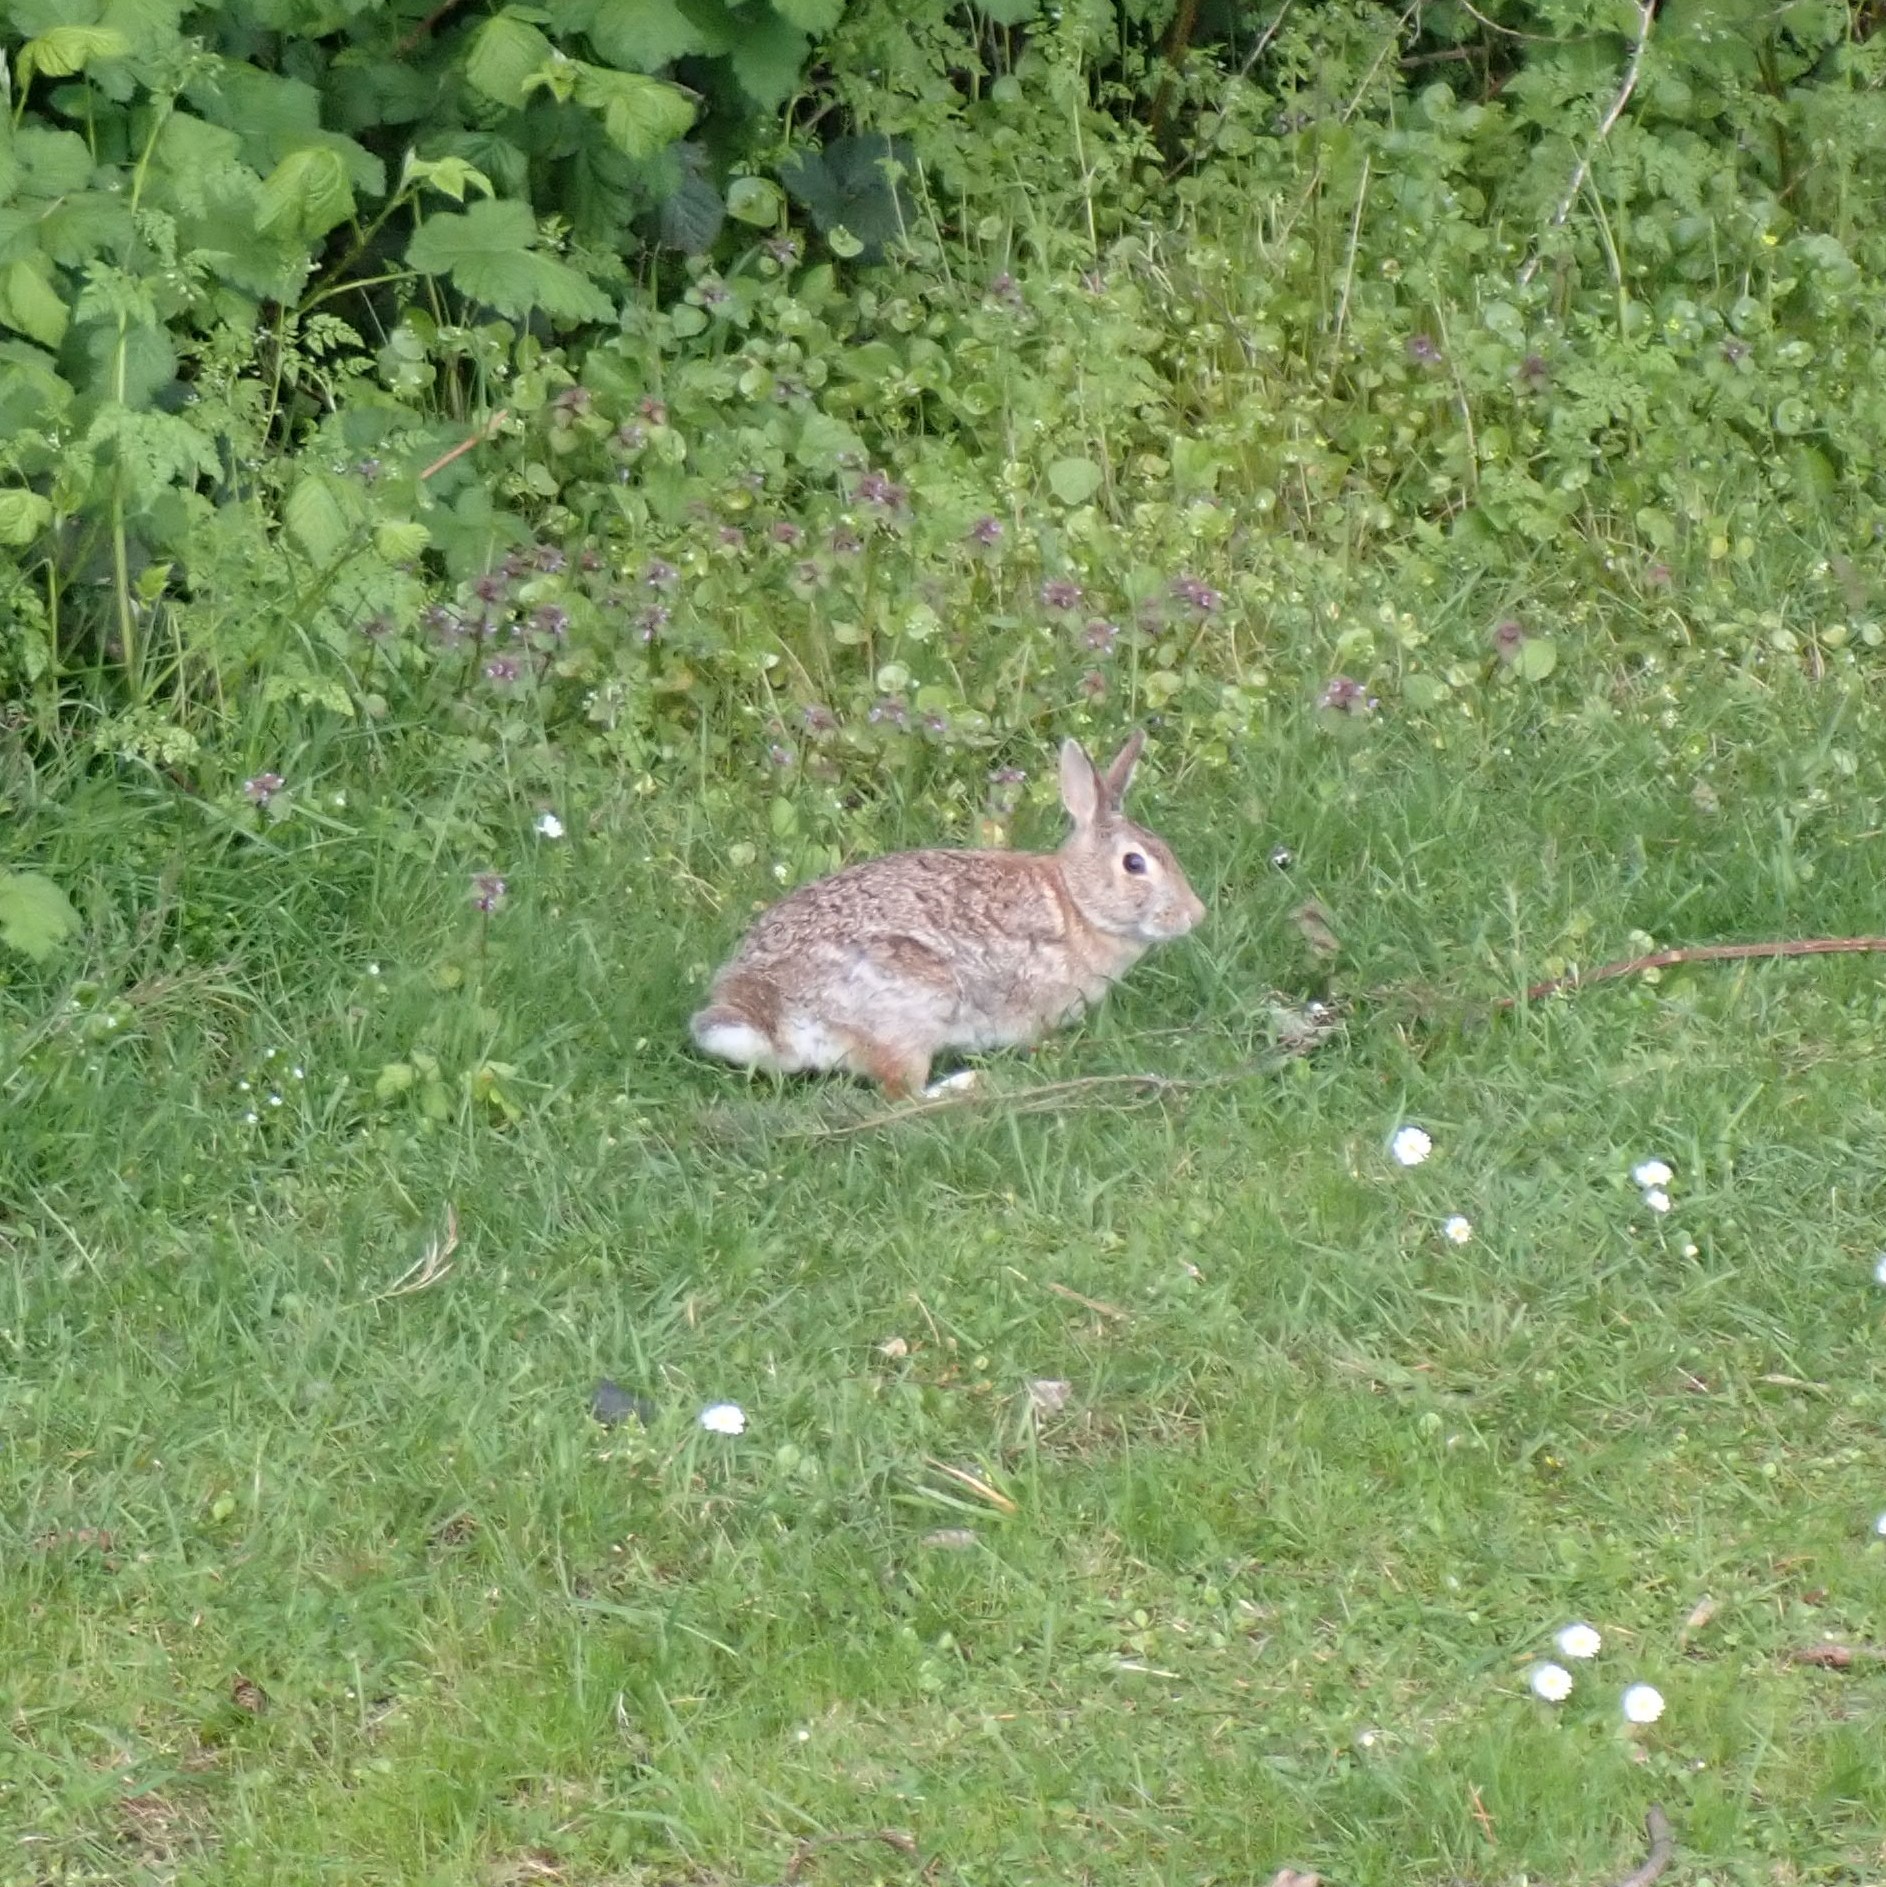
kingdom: Animalia
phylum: Chordata
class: Mammalia
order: Lagomorpha
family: Leporidae
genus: Sylvilagus
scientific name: Sylvilagus floridanus
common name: Eastern cottontail
